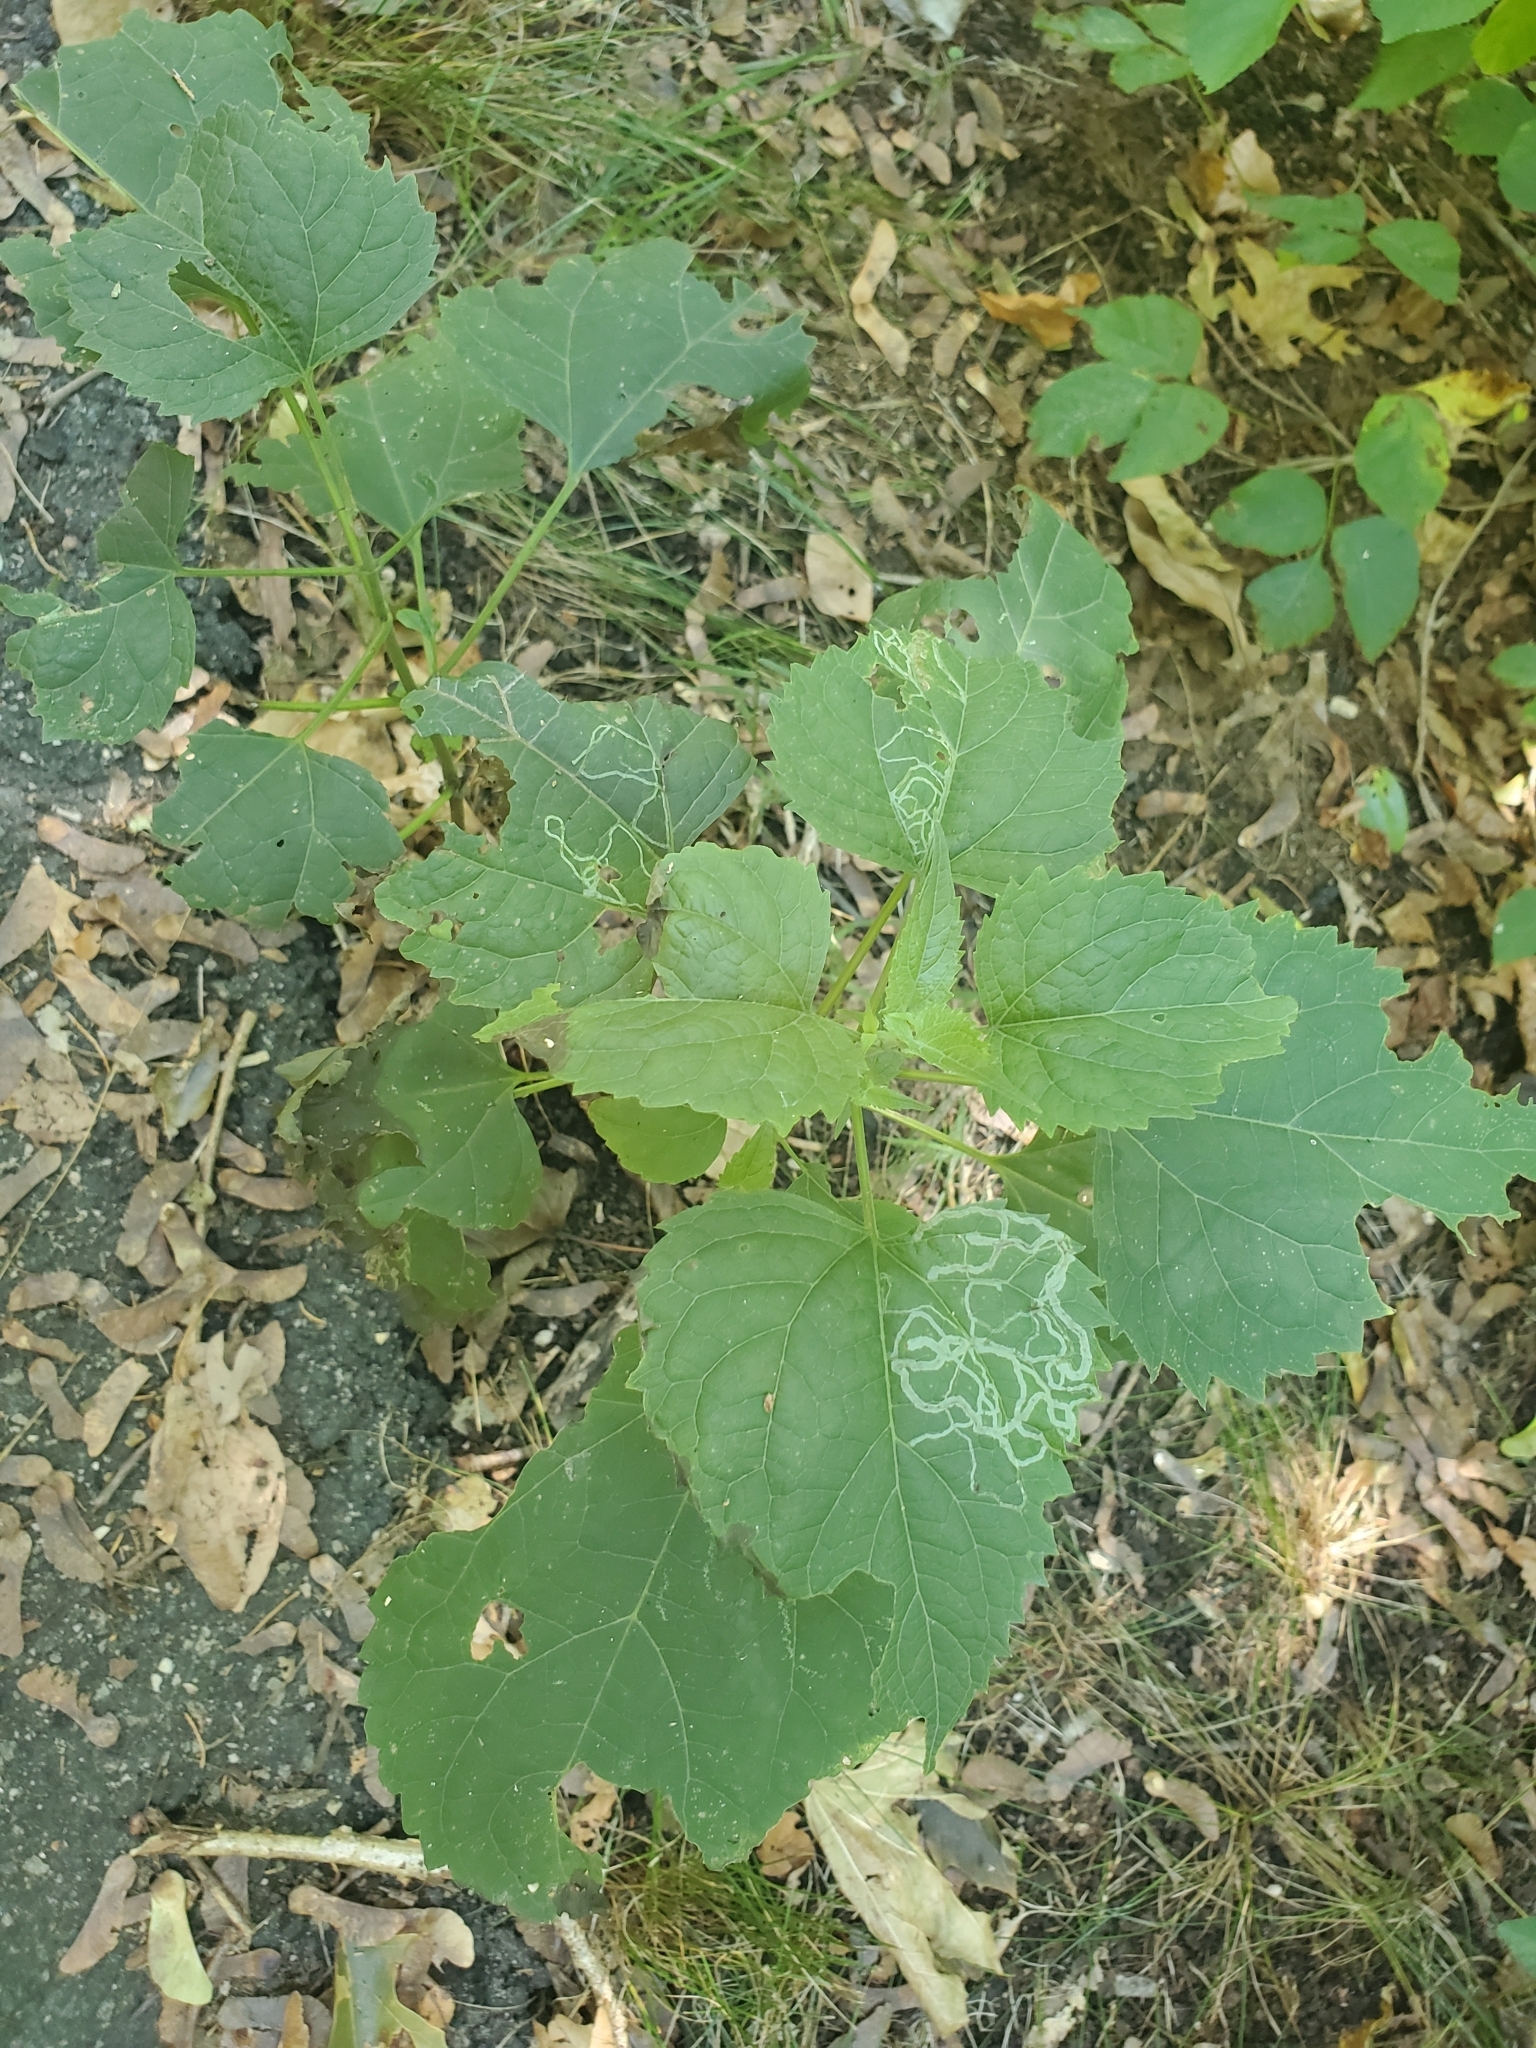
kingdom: Plantae
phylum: Tracheophyta
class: Magnoliopsida
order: Asterales
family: Asteraceae
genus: Ageratina
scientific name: Ageratina altissima
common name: White snakeroot
